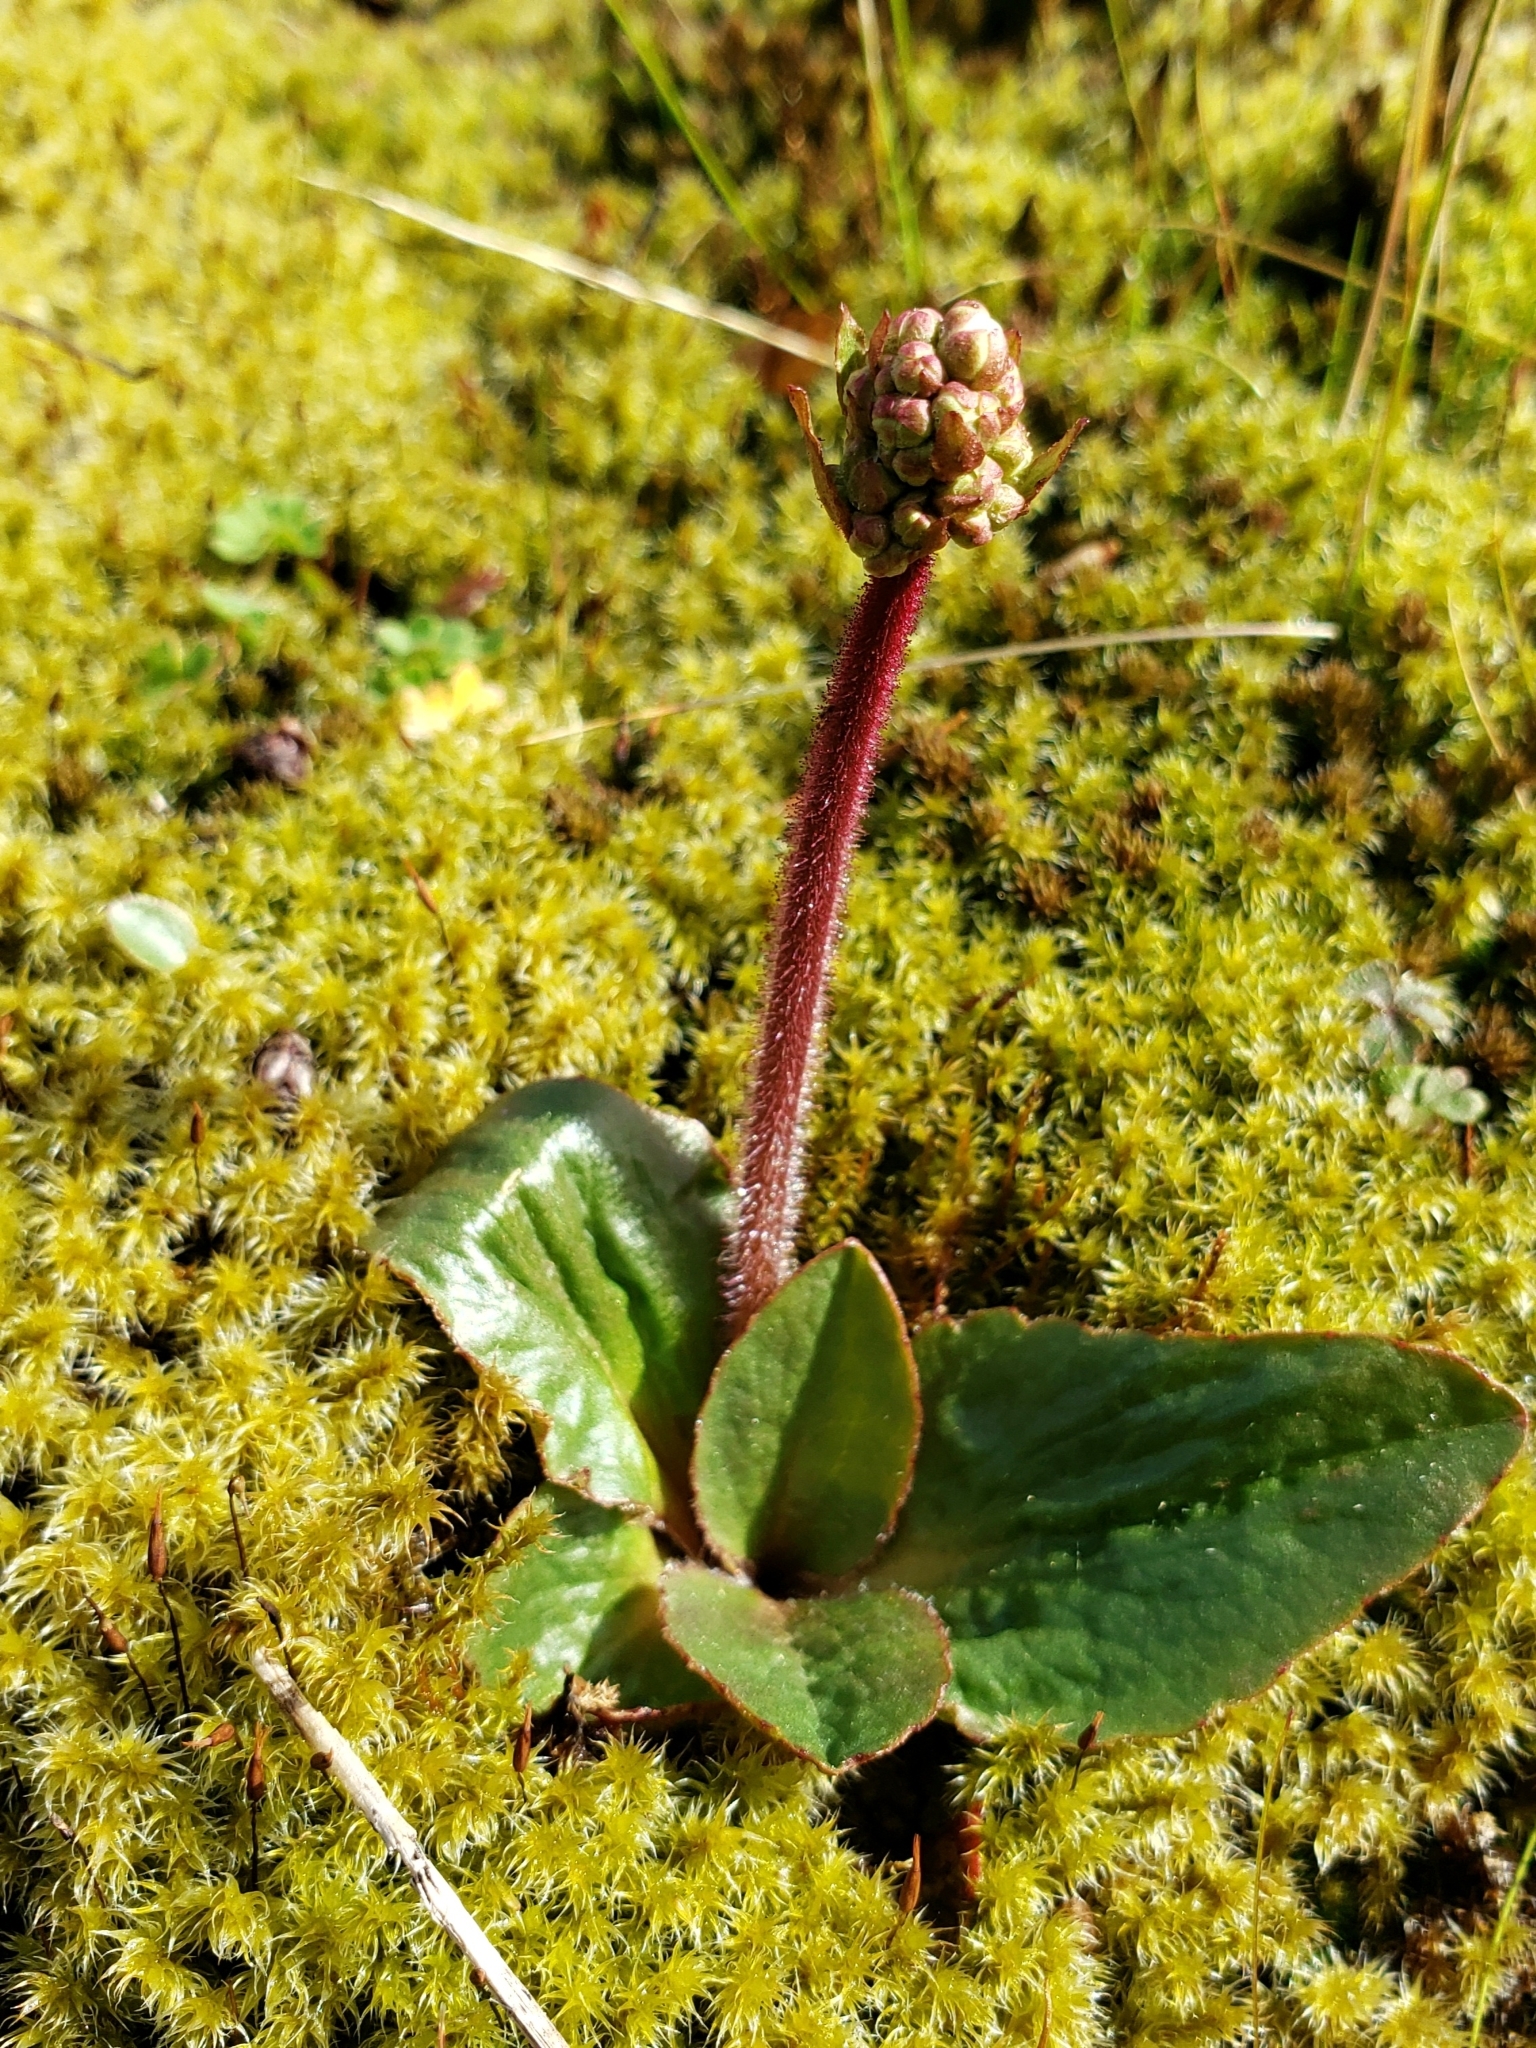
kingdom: Plantae
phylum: Tracheophyta
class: Magnoliopsida
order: Saxifragales
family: Saxifragaceae
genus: Micranthes
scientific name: Micranthes integrifolia
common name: Wholeleaf saxifrage
